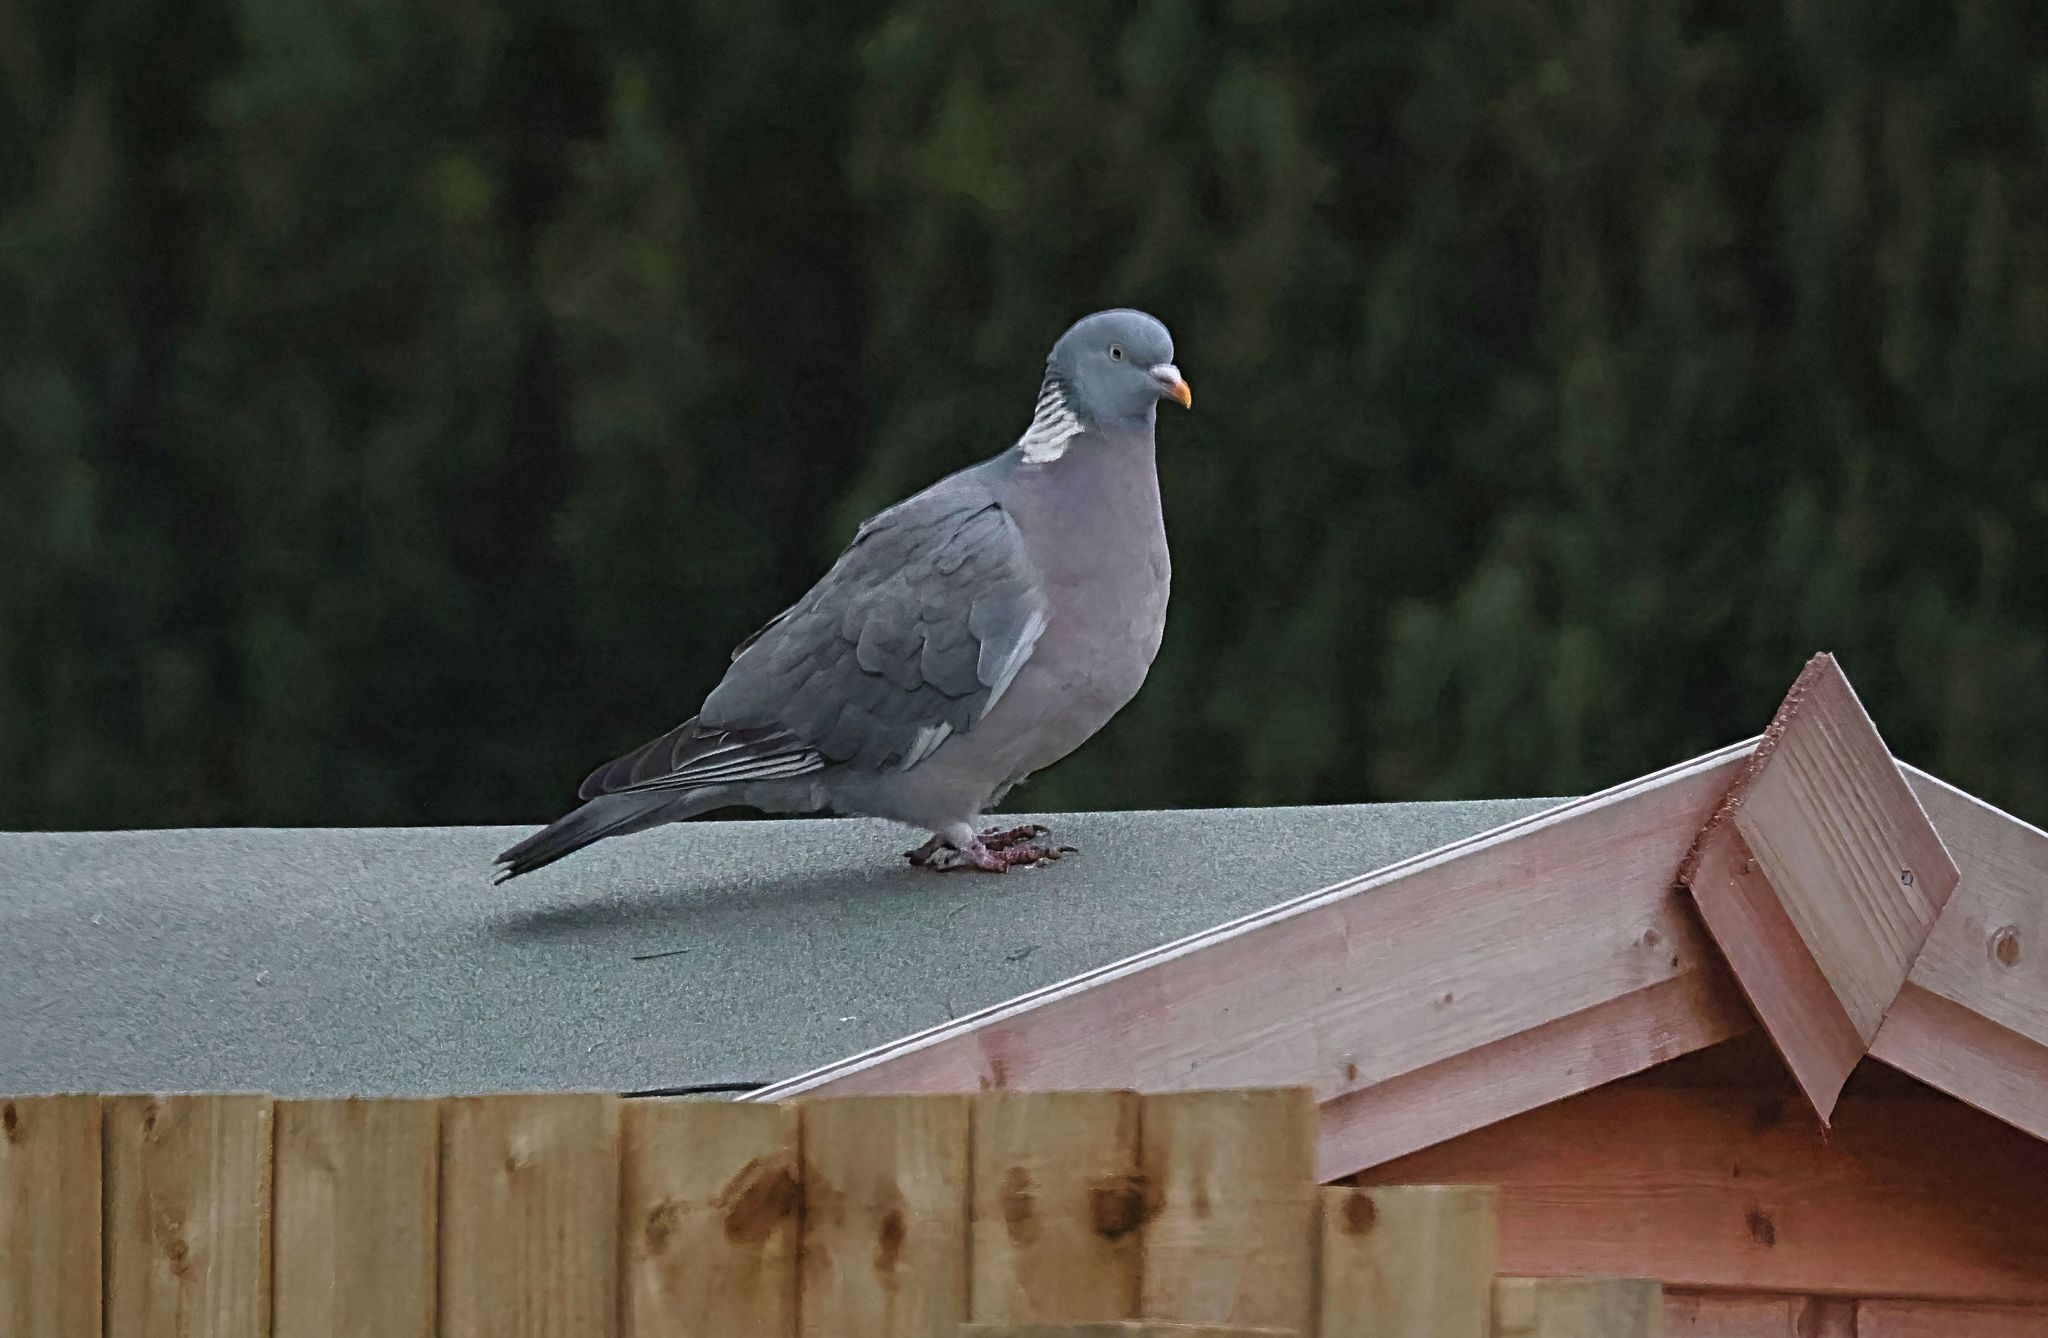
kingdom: Animalia
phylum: Chordata
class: Aves
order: Columbiformes
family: Columbidae
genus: Columba
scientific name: Columba palumbus
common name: Common wood pigeon
